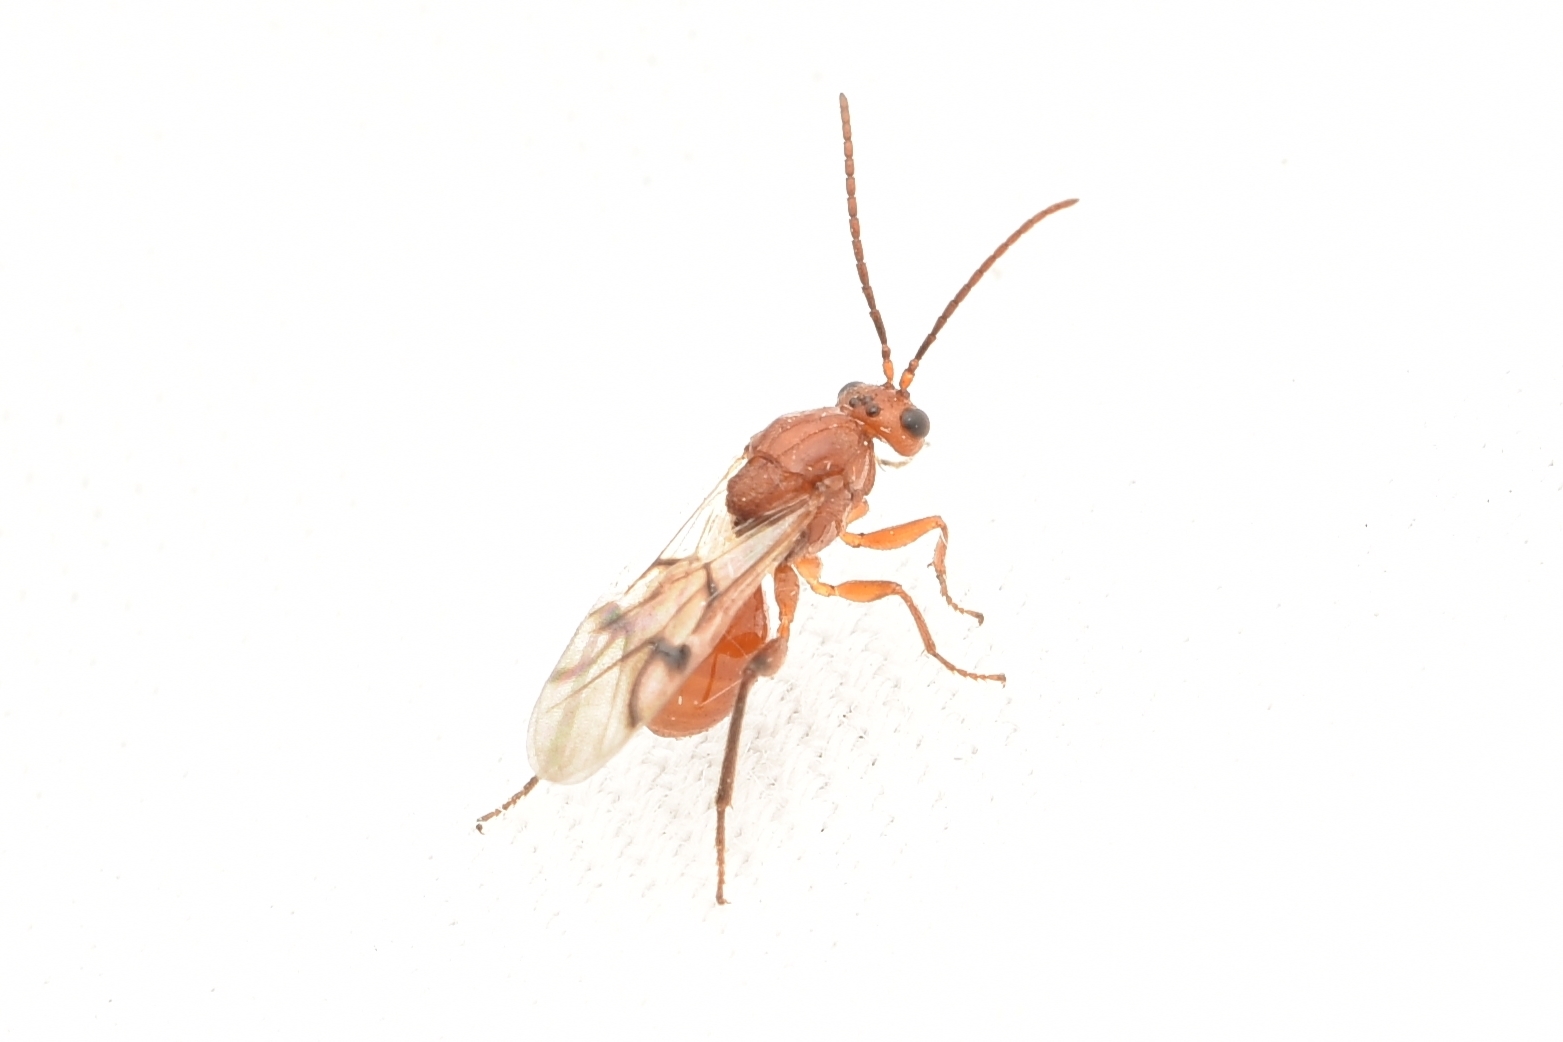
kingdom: Animalia
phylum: Arthropoda
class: Insecta
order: Hymenoptera
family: Cynipidae
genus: Belonocnema
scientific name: Belonocnema kinseyi
